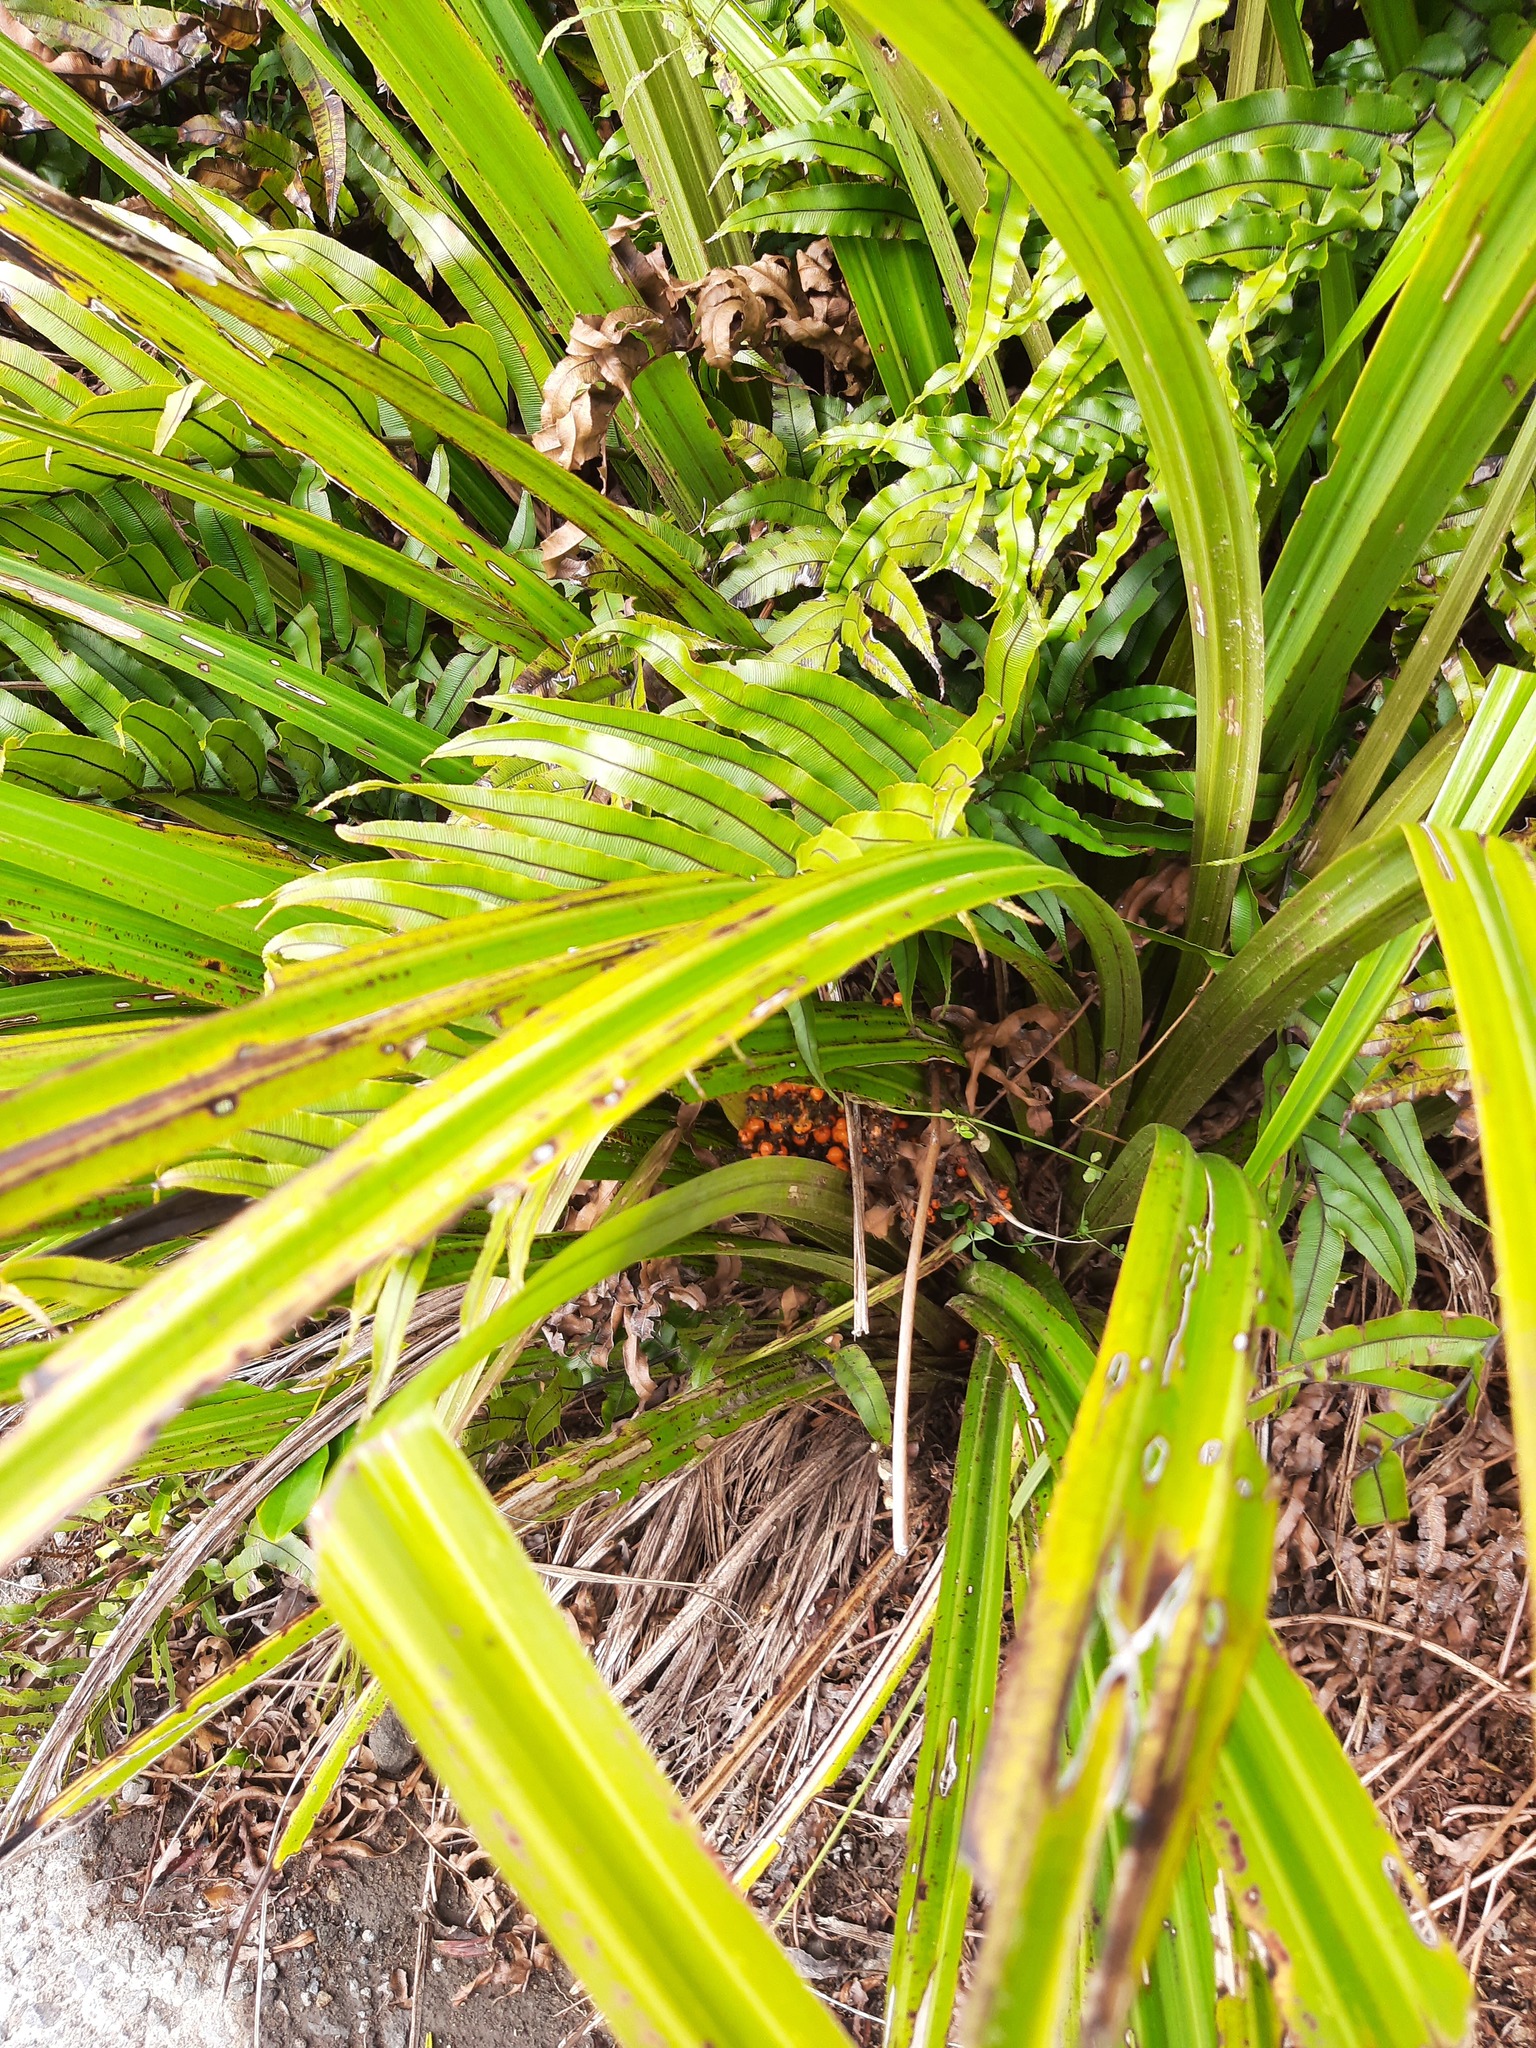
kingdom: Plantae
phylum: Tracheophyta
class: Liliopsida
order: Asparagales
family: Asteliaceae
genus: Astelia
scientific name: Astelia fragrans
